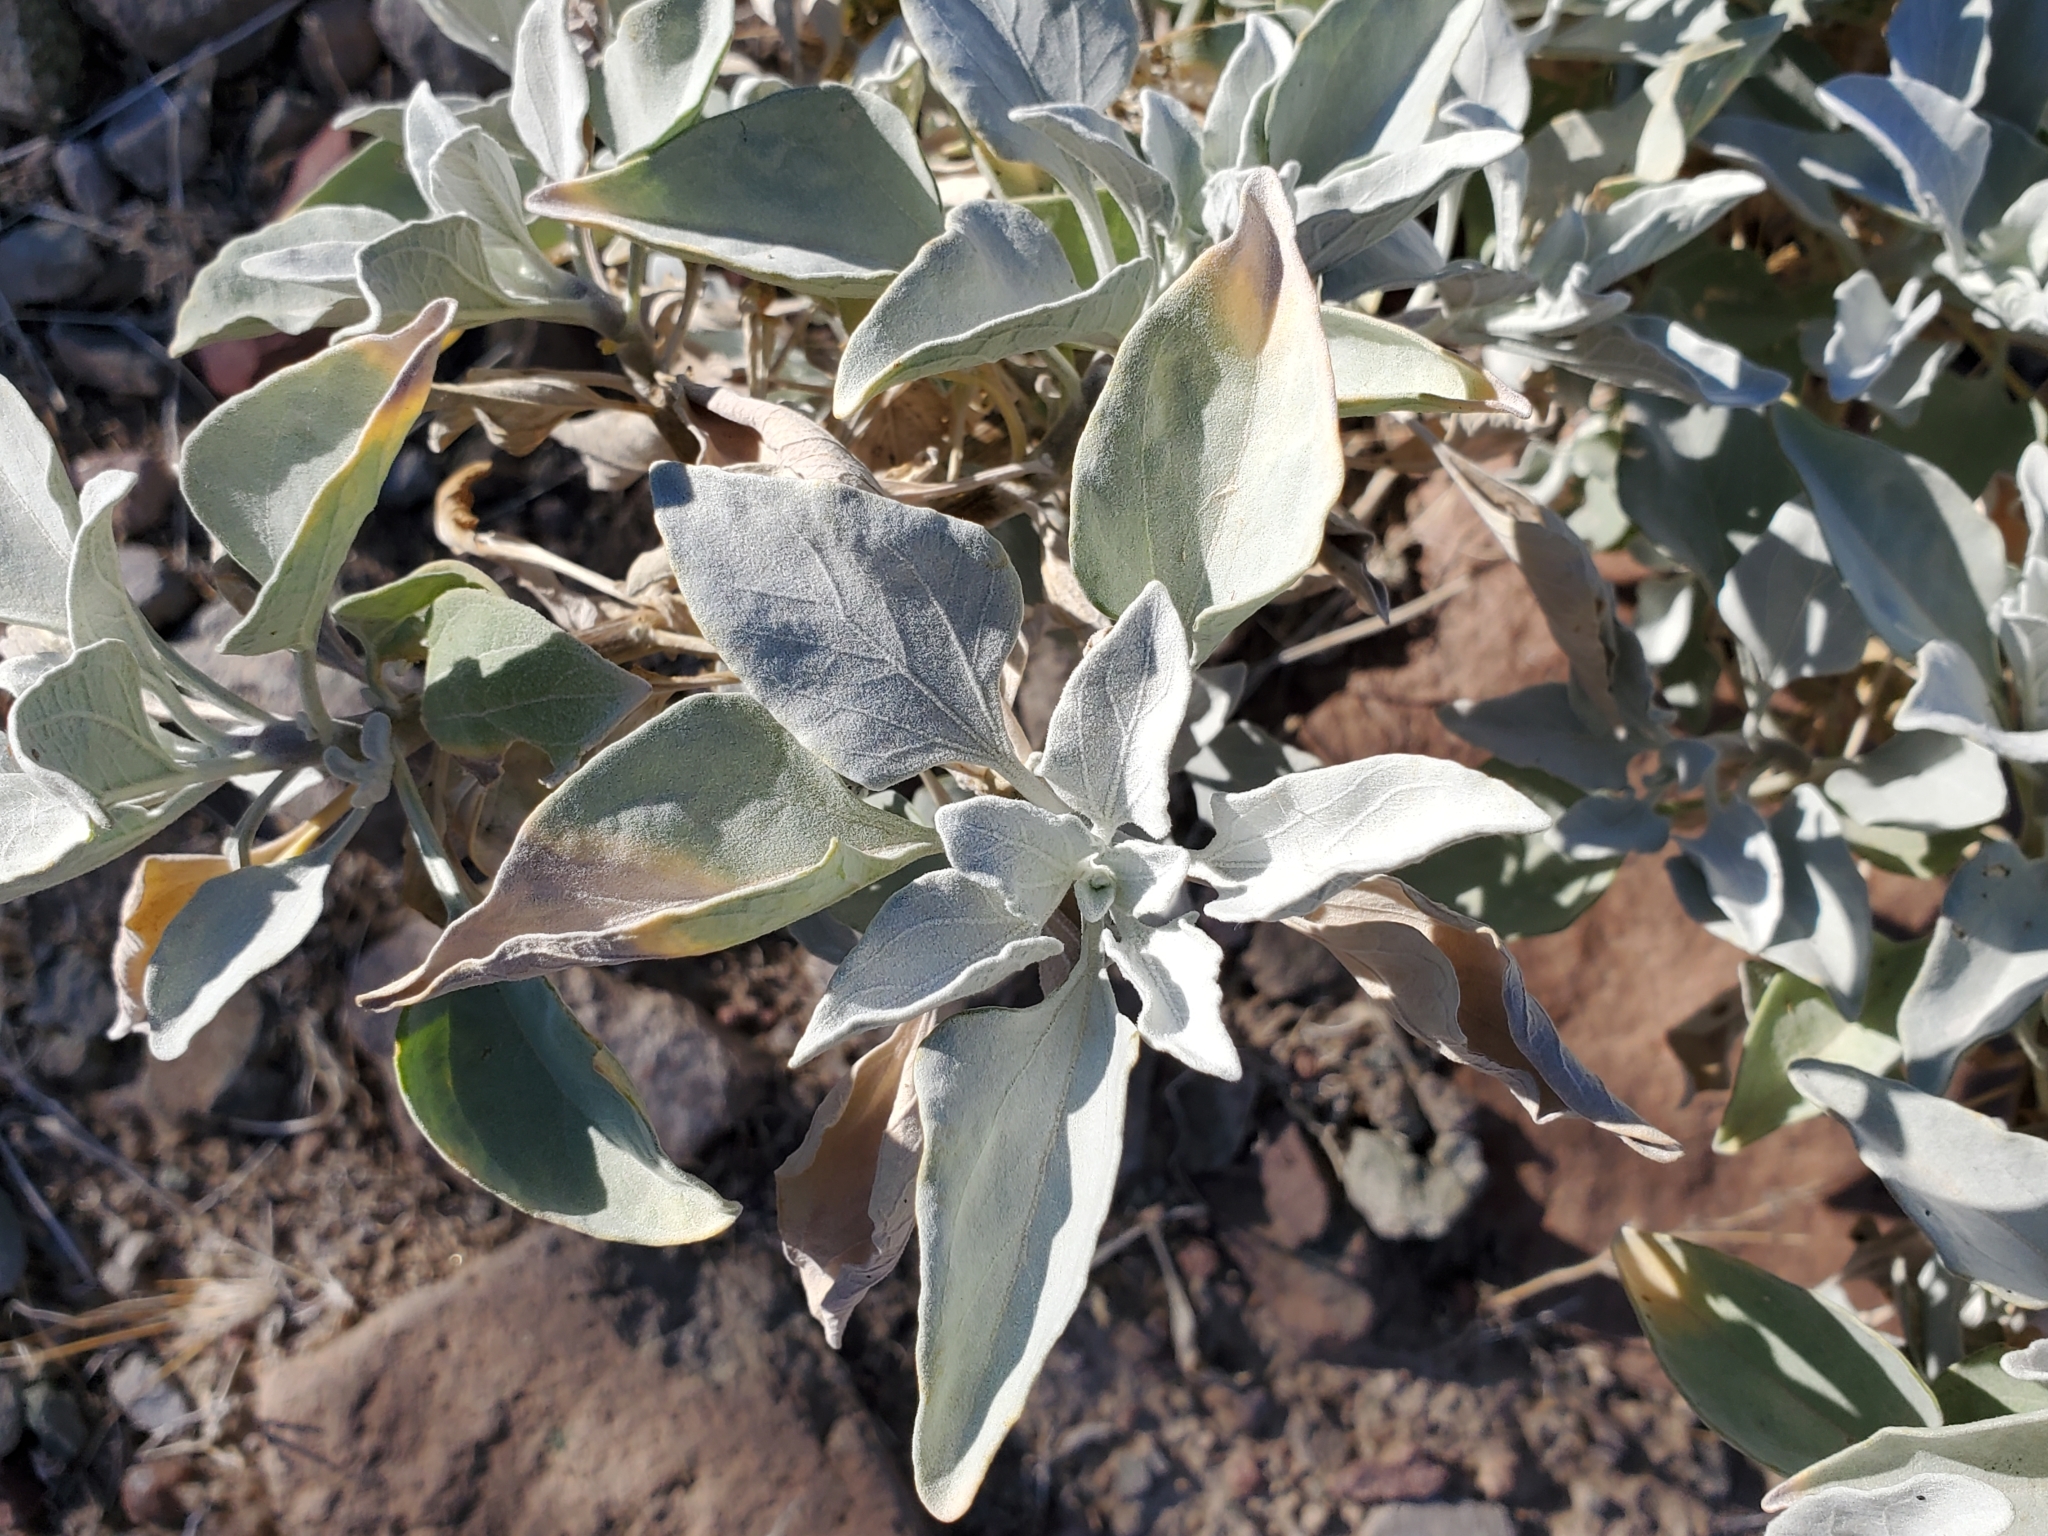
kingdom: Plantae
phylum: Tracheophyta
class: Magnoliopsida
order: Asterales
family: Asteraceae
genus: Encelia
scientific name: Encelia farinosa
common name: Brittlebush
